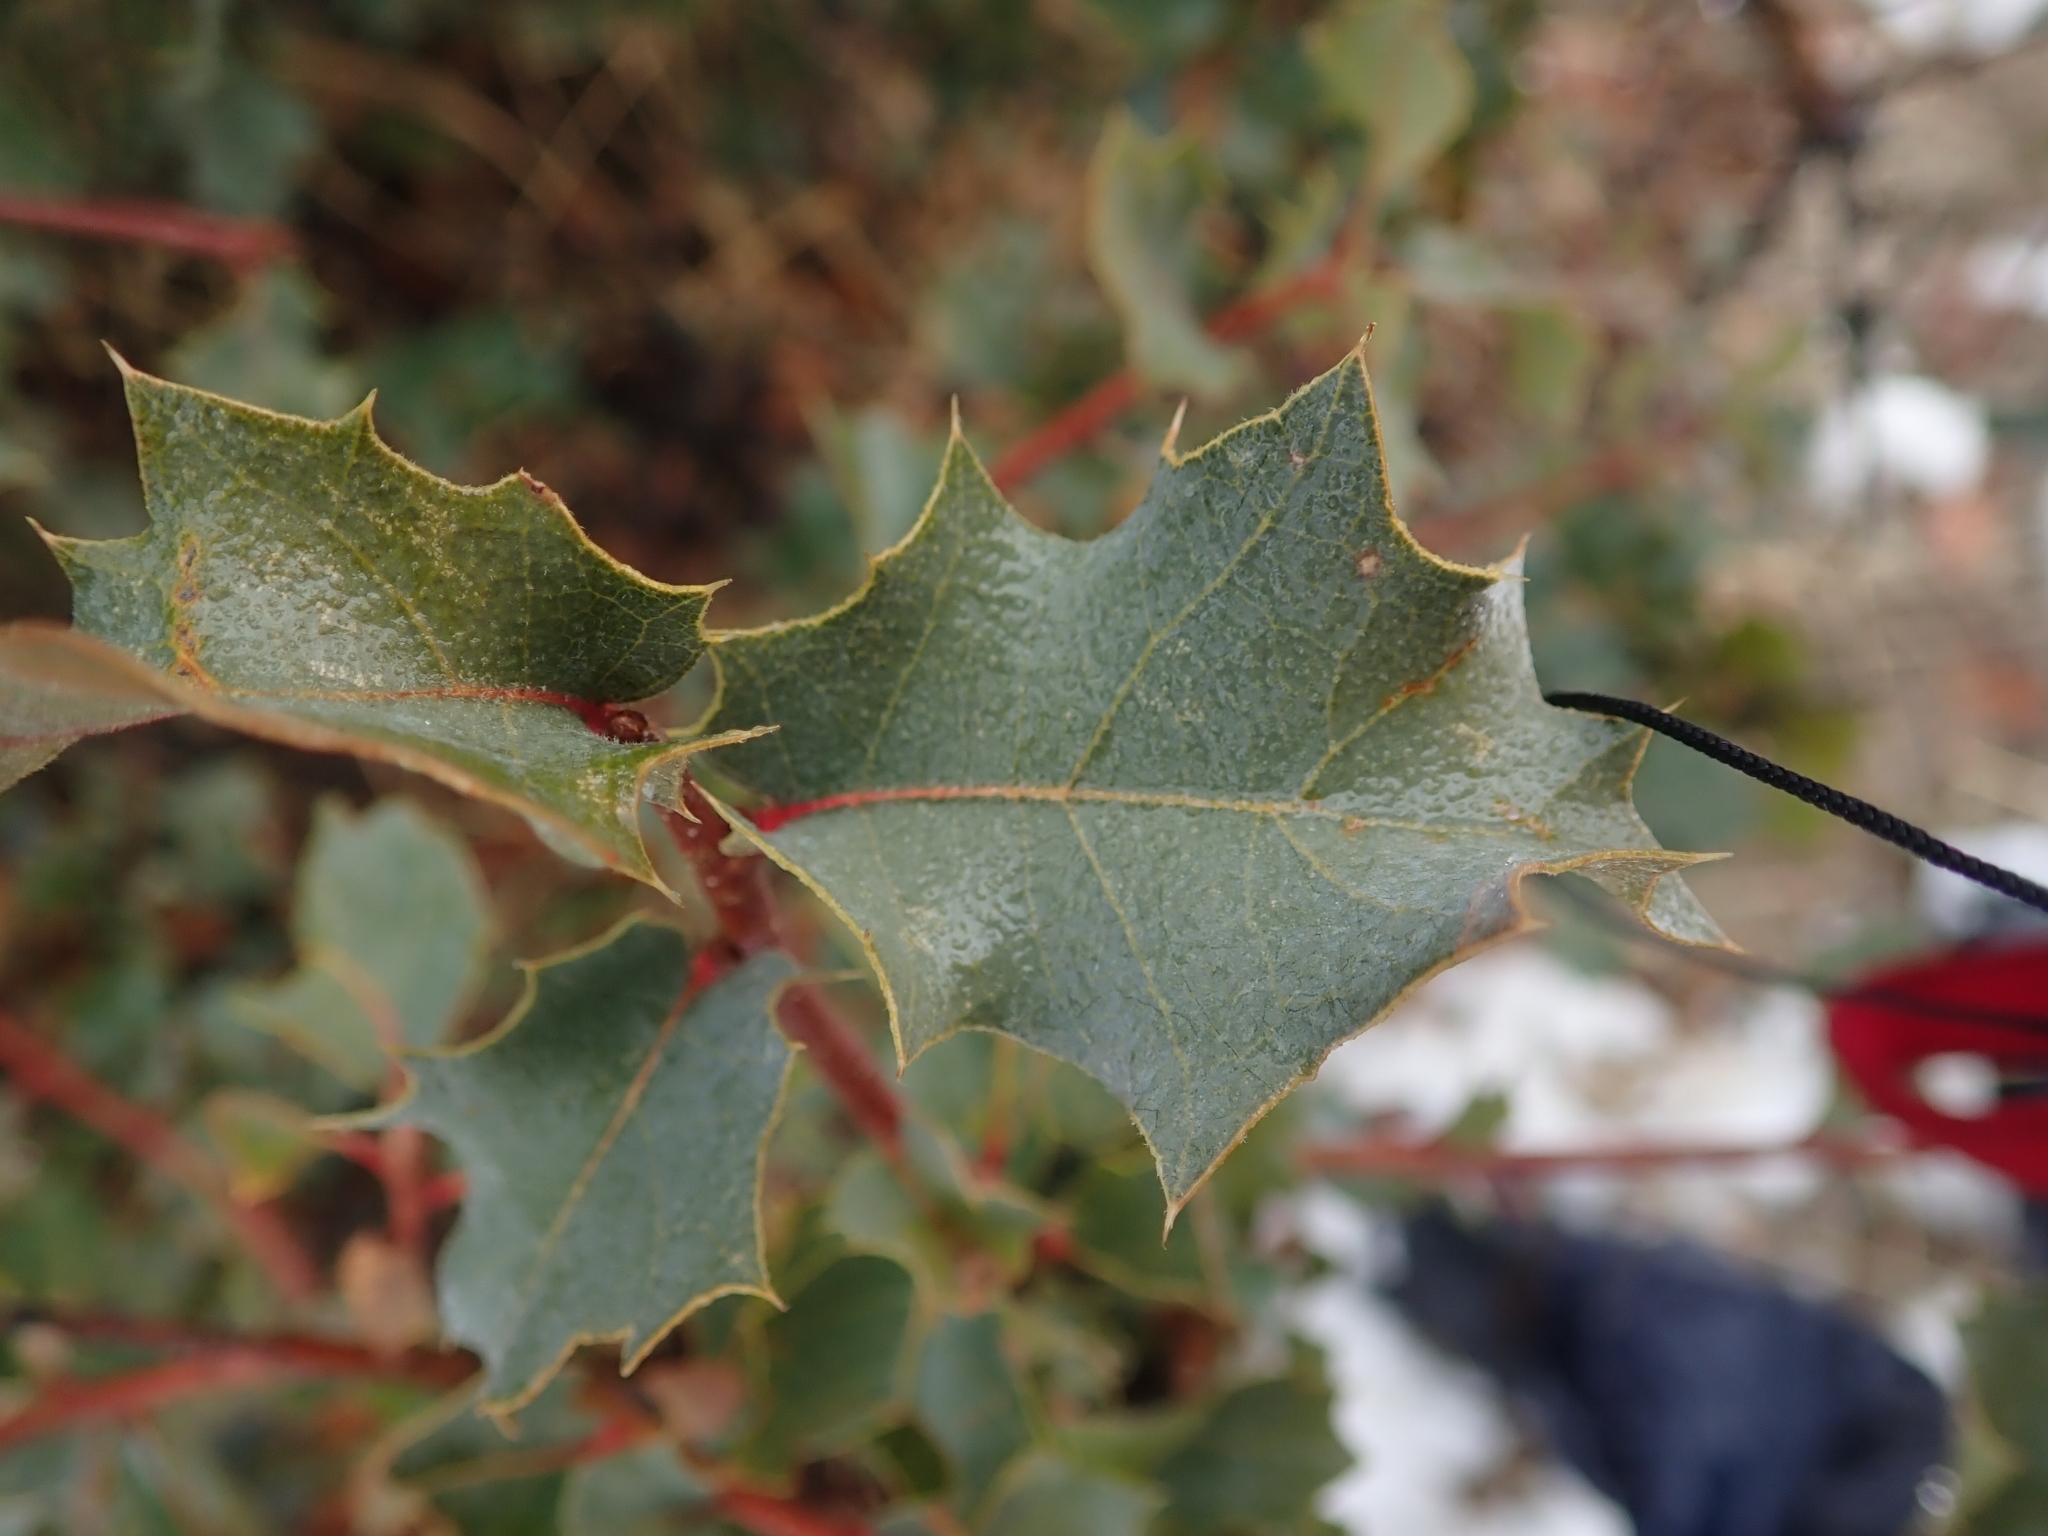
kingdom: Plantae
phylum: Tracheophyta
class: Magnoliopsida
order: Fagales
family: Fagaceae
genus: Quercus
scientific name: Quercus turbinella
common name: Sonoran scrub oak
